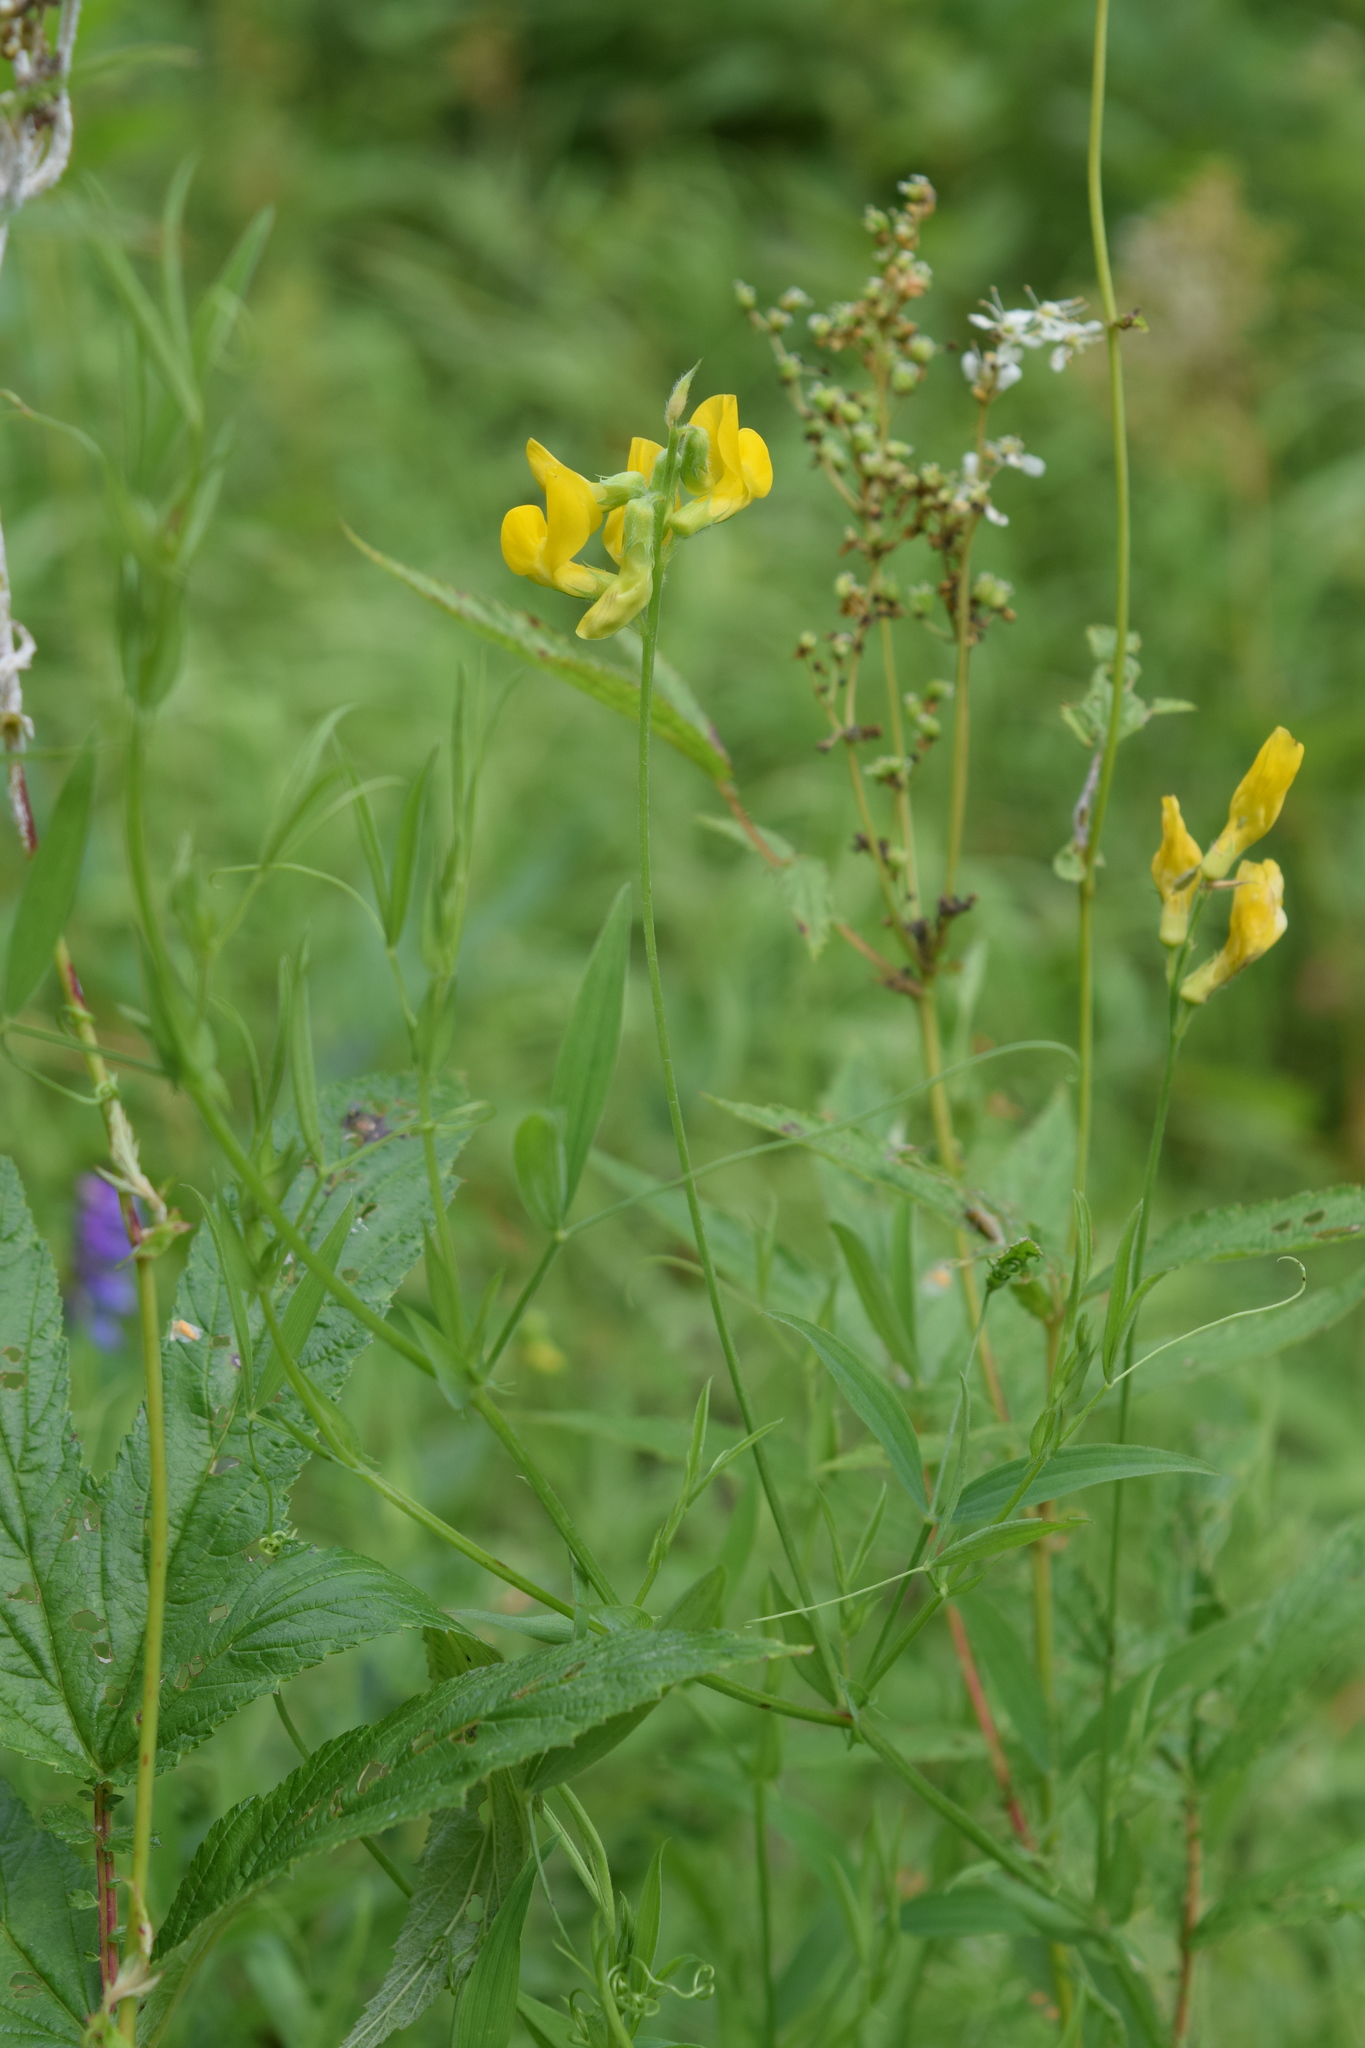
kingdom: Plantae
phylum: Tracheophyta
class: Magnoliopsida
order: Fabales
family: Fabaceae
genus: Lathyrus
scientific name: Lathyrus pratensis
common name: Meadow vetchling
